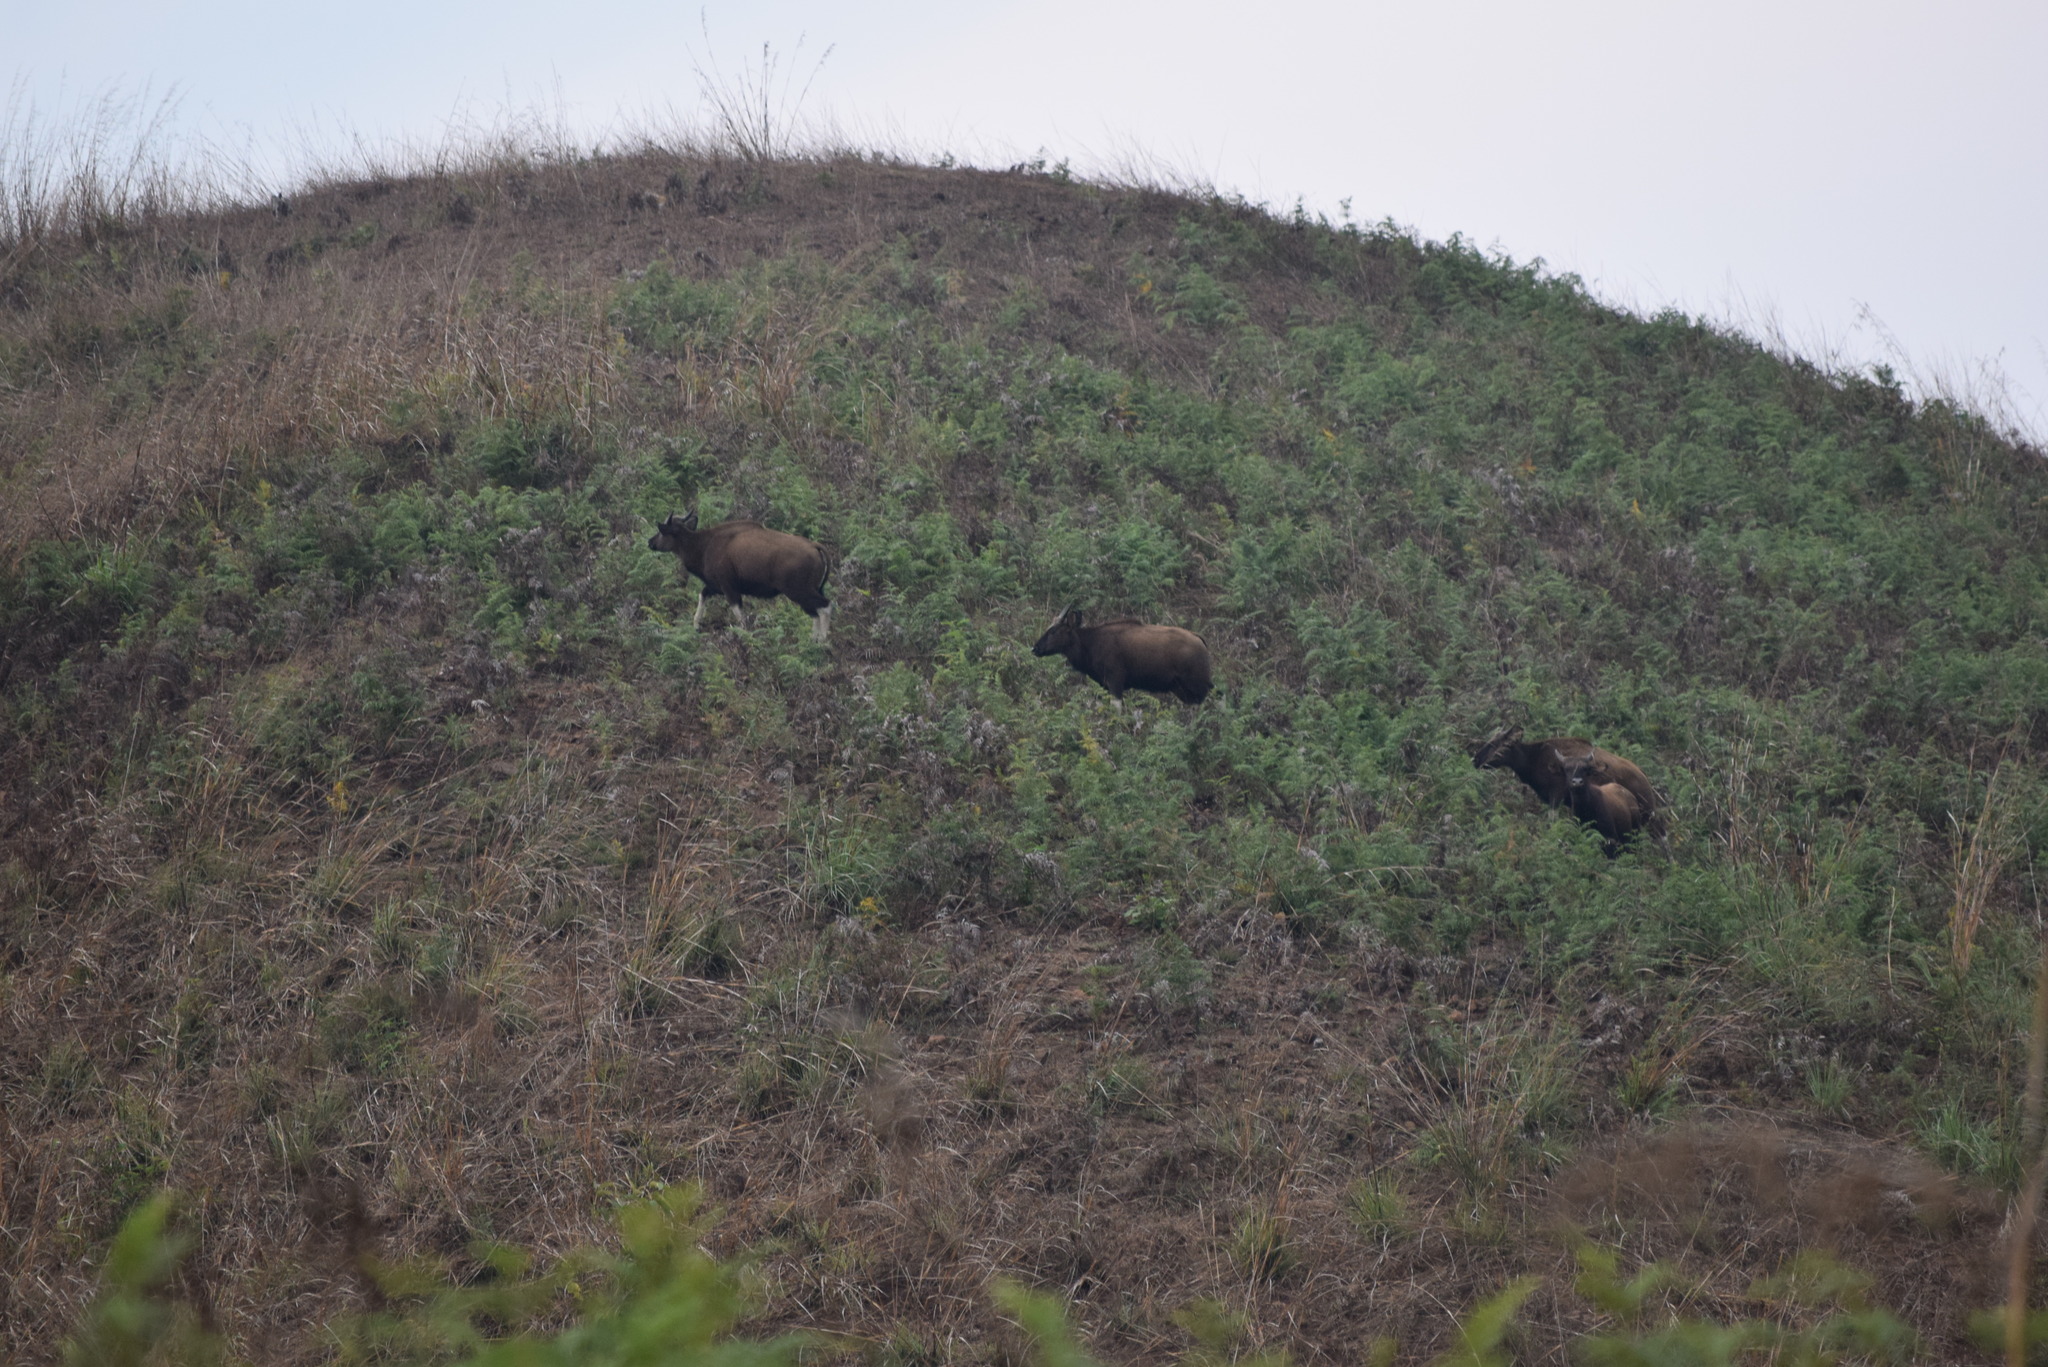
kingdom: Animalia
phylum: Chordata
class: Mammalia
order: Artiodactyla
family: Bovidae
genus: Bos
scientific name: Bos frontalis
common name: Gaur
